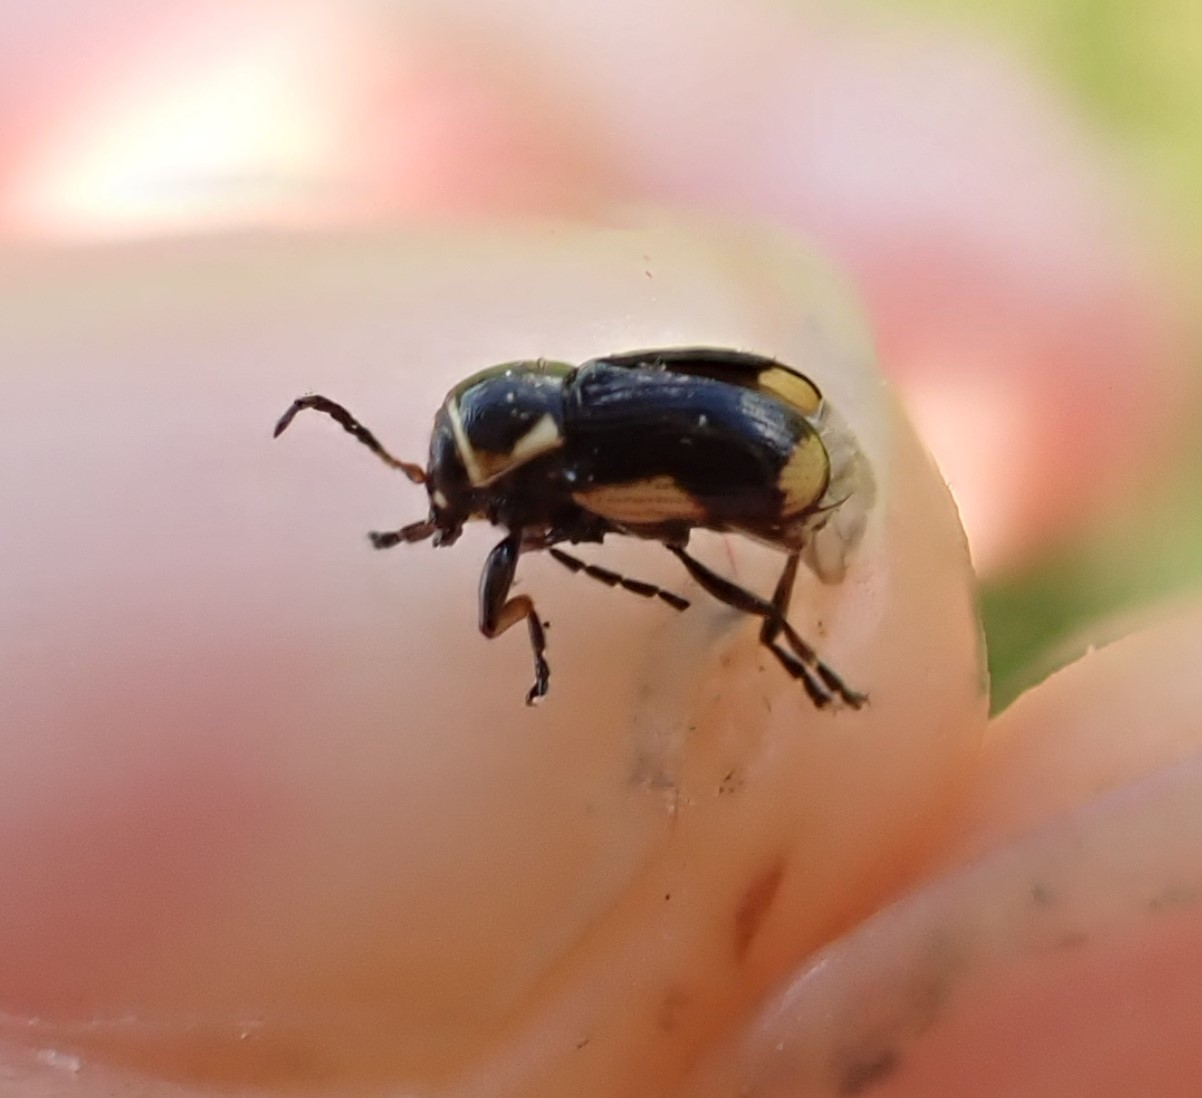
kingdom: Animalia
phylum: Arthropoda
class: Insecta
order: Coleoptera
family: Chrysomelidae
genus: Cryptocephalus
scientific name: Cryptocephalus moraei
